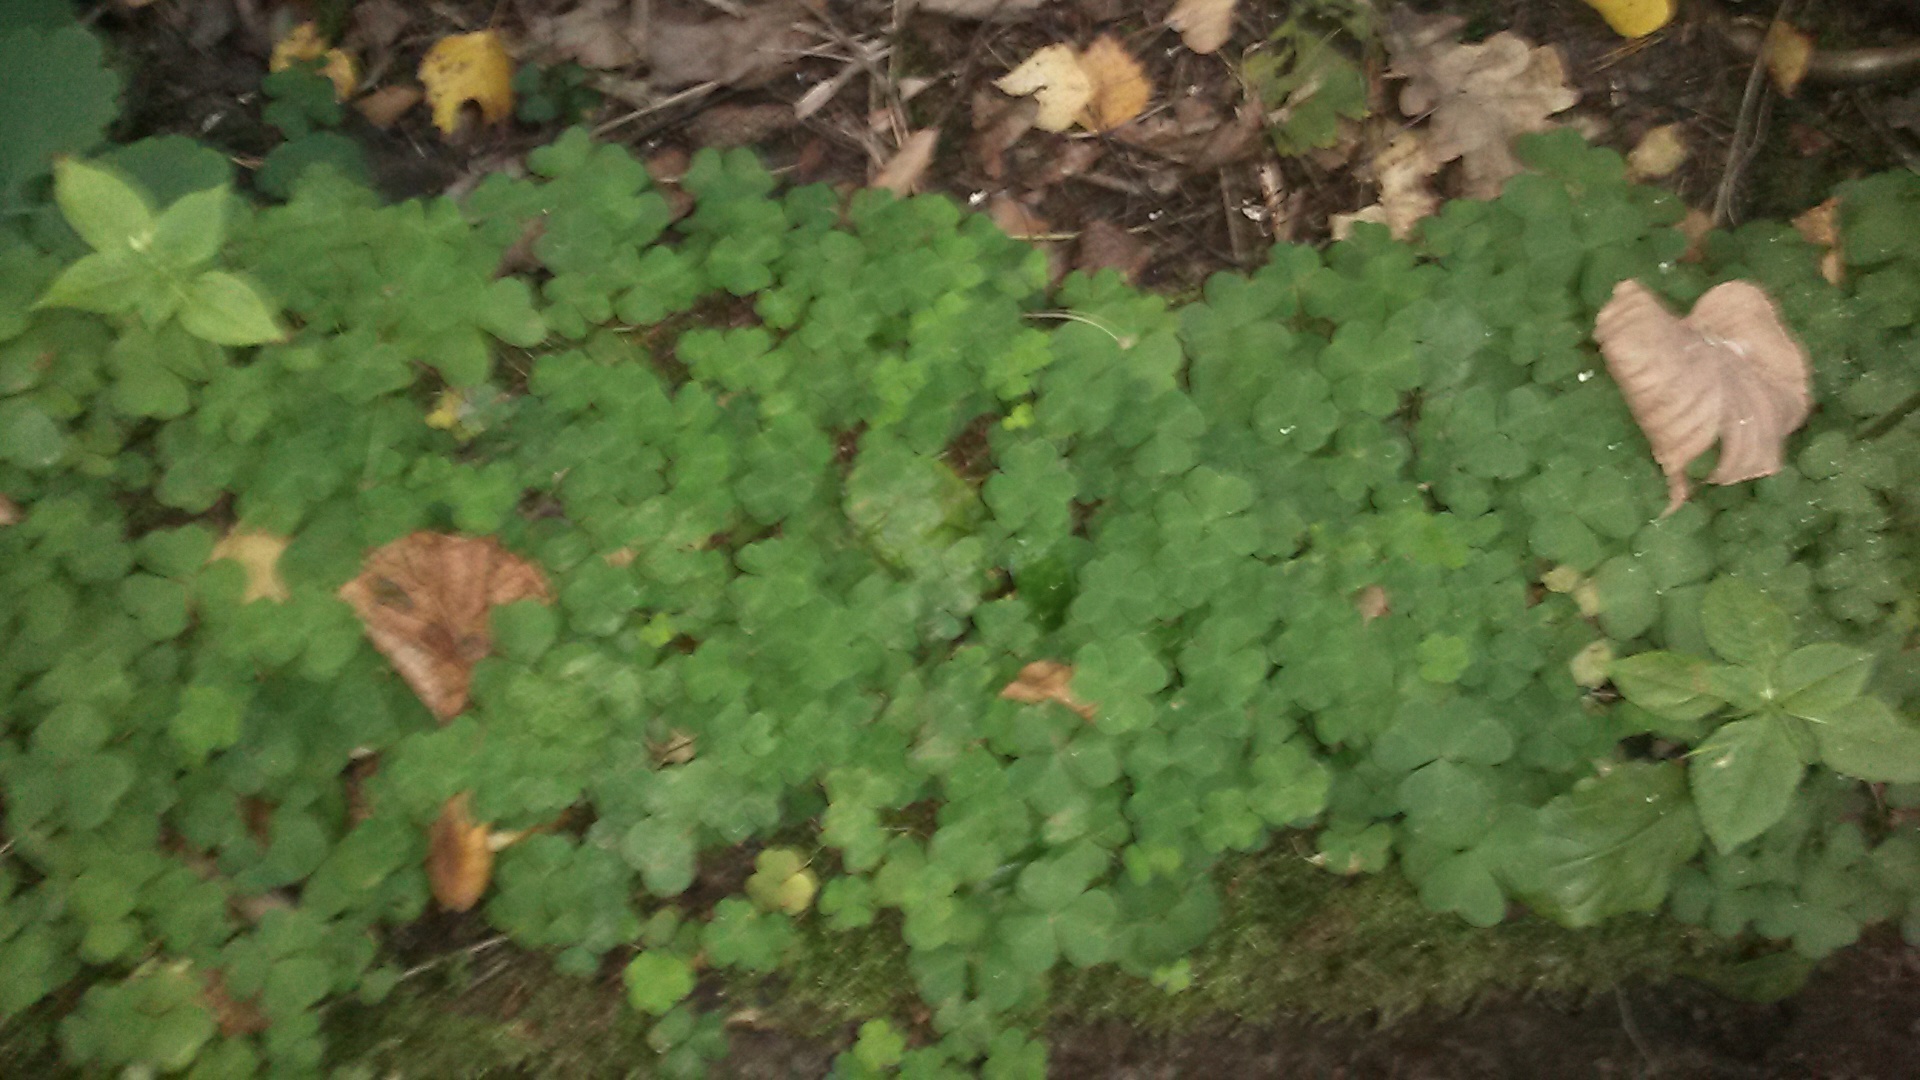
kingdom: Plantae
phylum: Tracheophyta
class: Magnoliopsida
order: Oxalidales
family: Oxalidaceae
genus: Oxalis
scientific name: Oxalis acetosella
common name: Wood-sorrel
